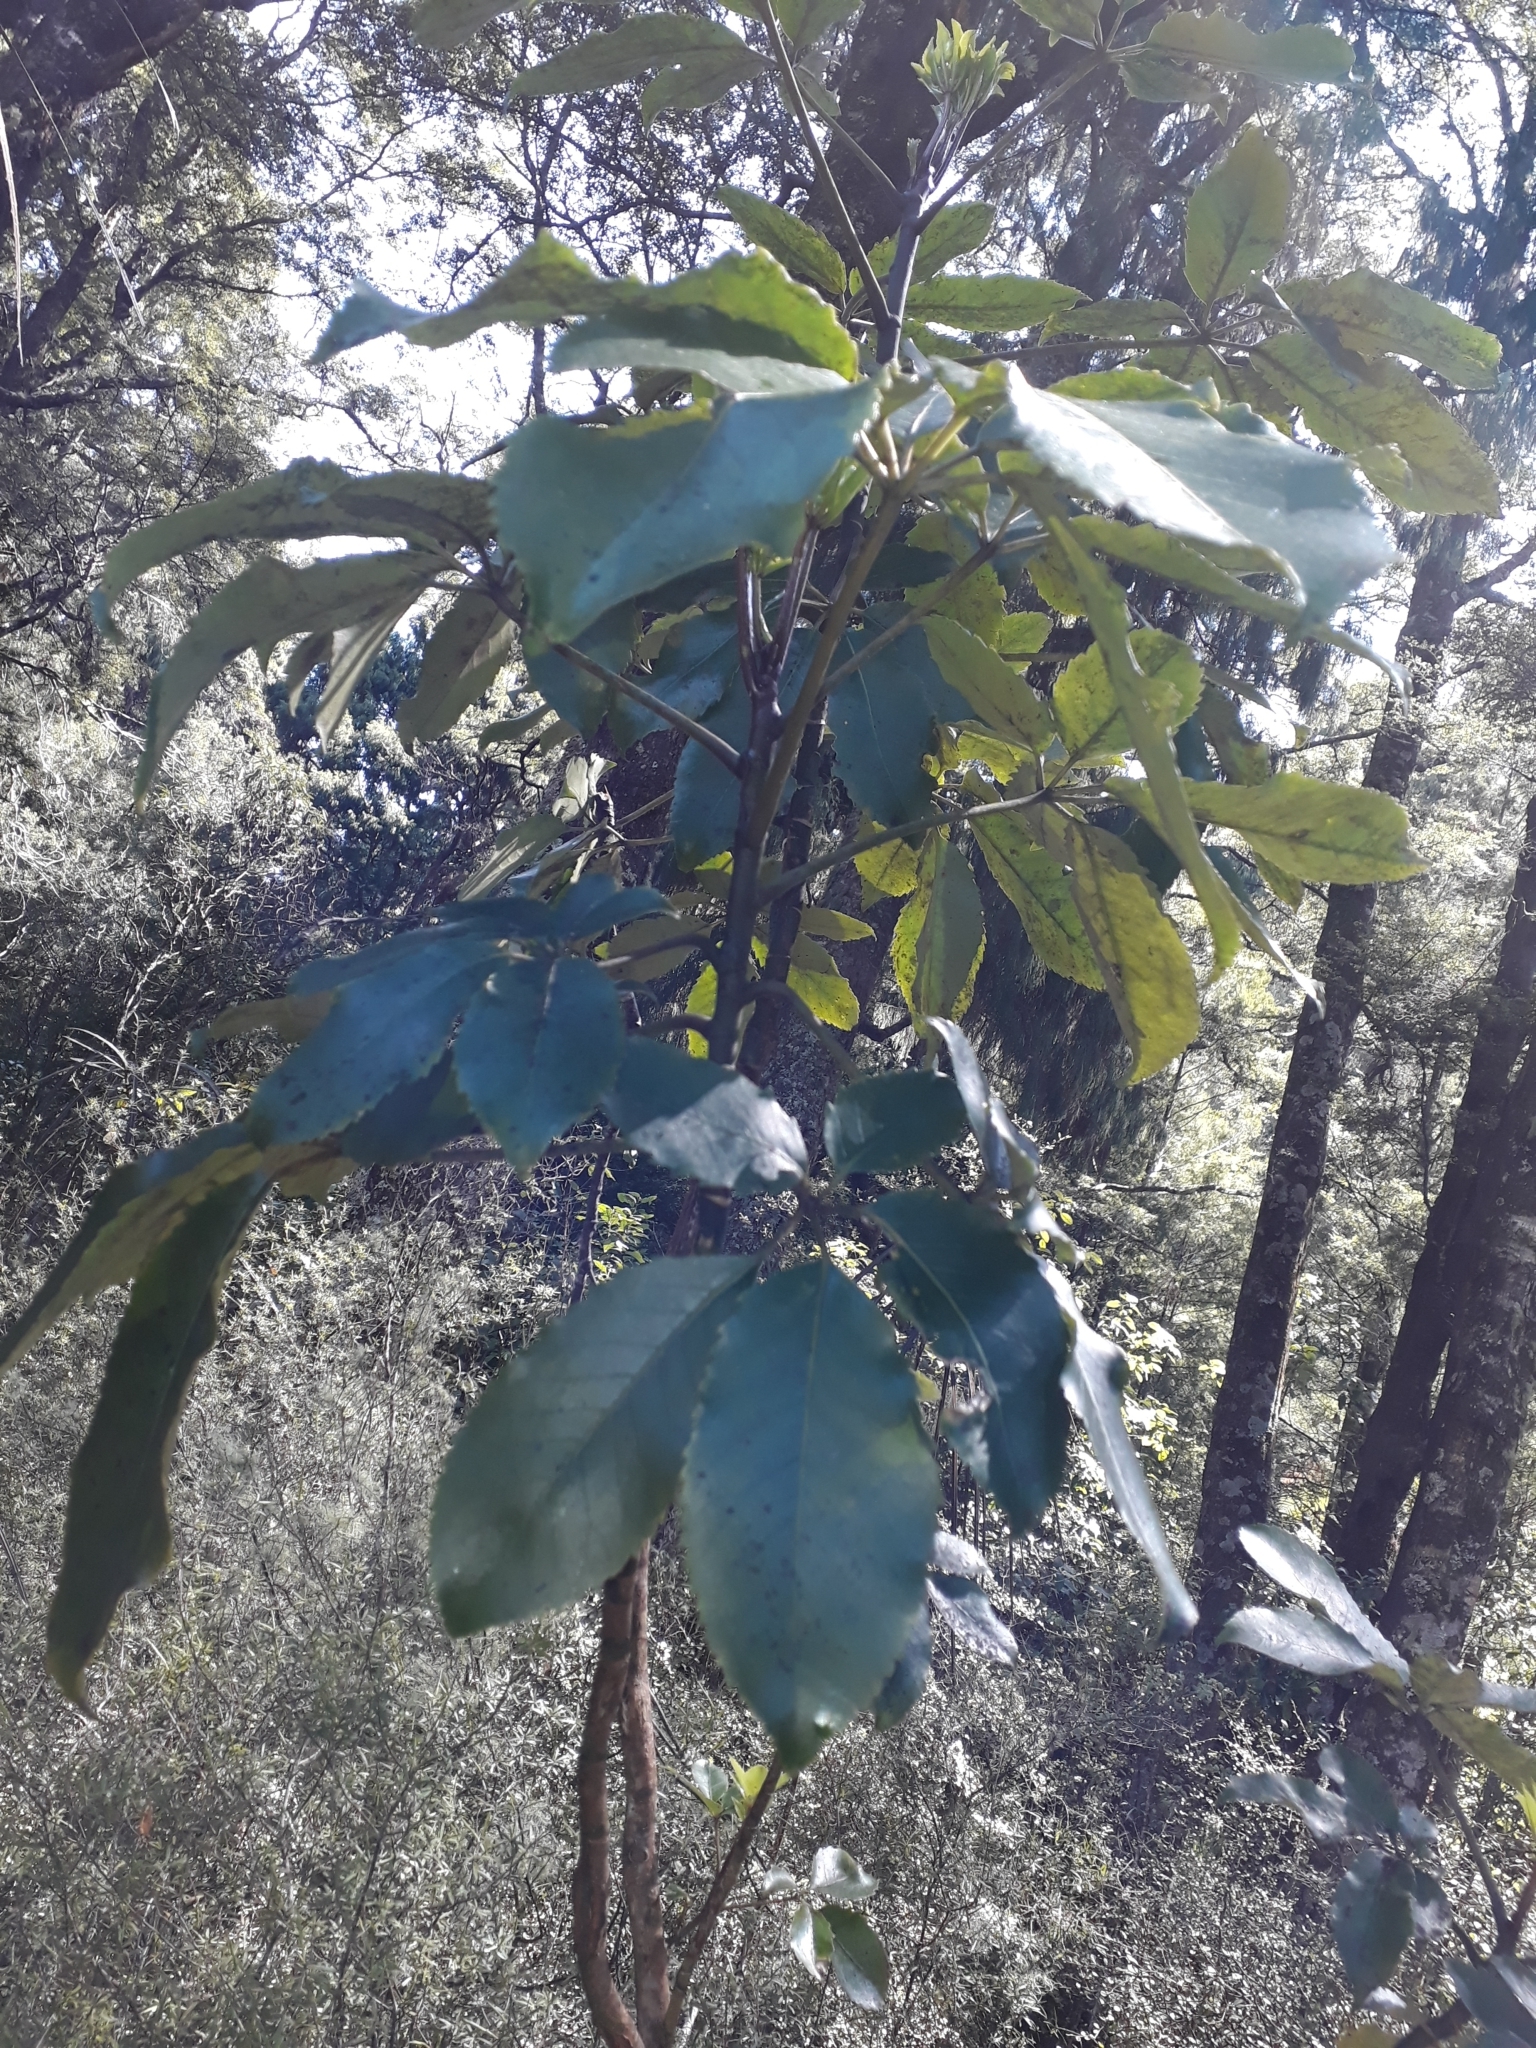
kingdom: Plantae
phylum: Tracheophyta
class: Magnoliopsida
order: Apiales
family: Araliaceae
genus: Neopanax
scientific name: Neopanax arboreus
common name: Five-fingers
